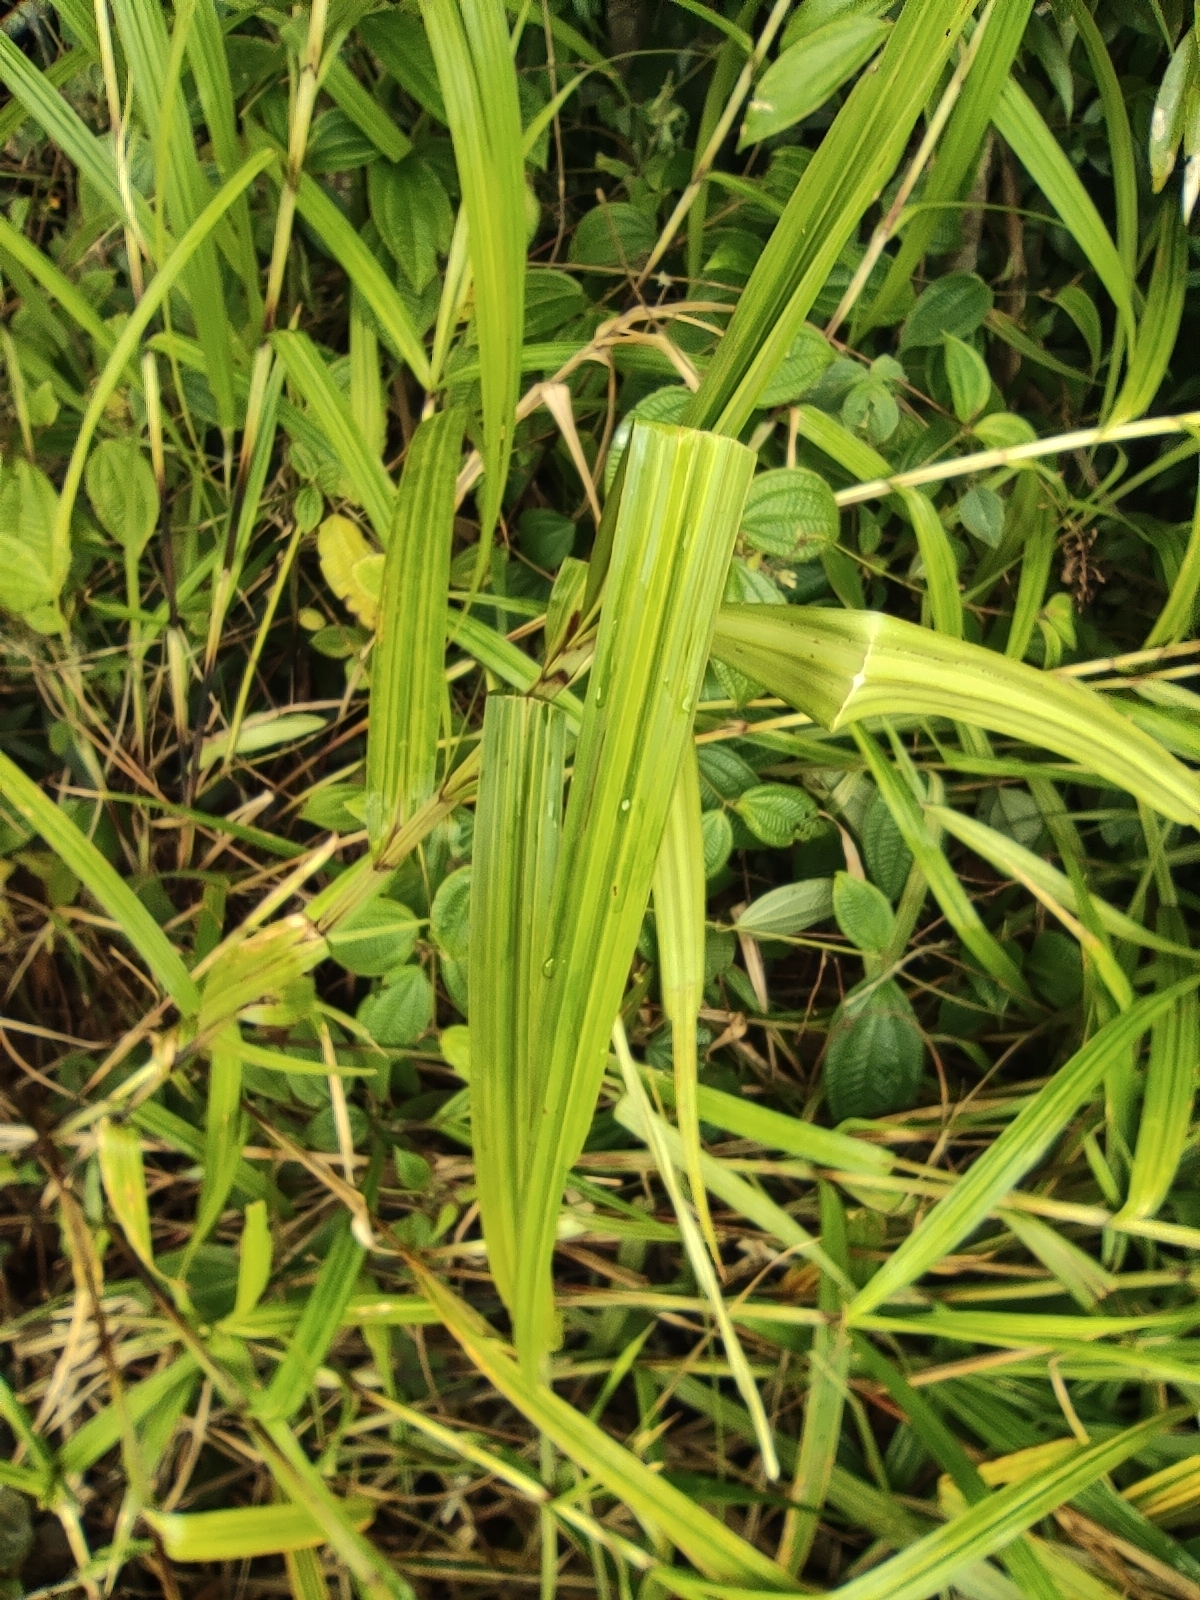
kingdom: Plantae
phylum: Tracheophyta
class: Liliopsida
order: Poales
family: Cyperaceae
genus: Scleria
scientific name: Scleria gaertneri
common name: Cortadera blanca
